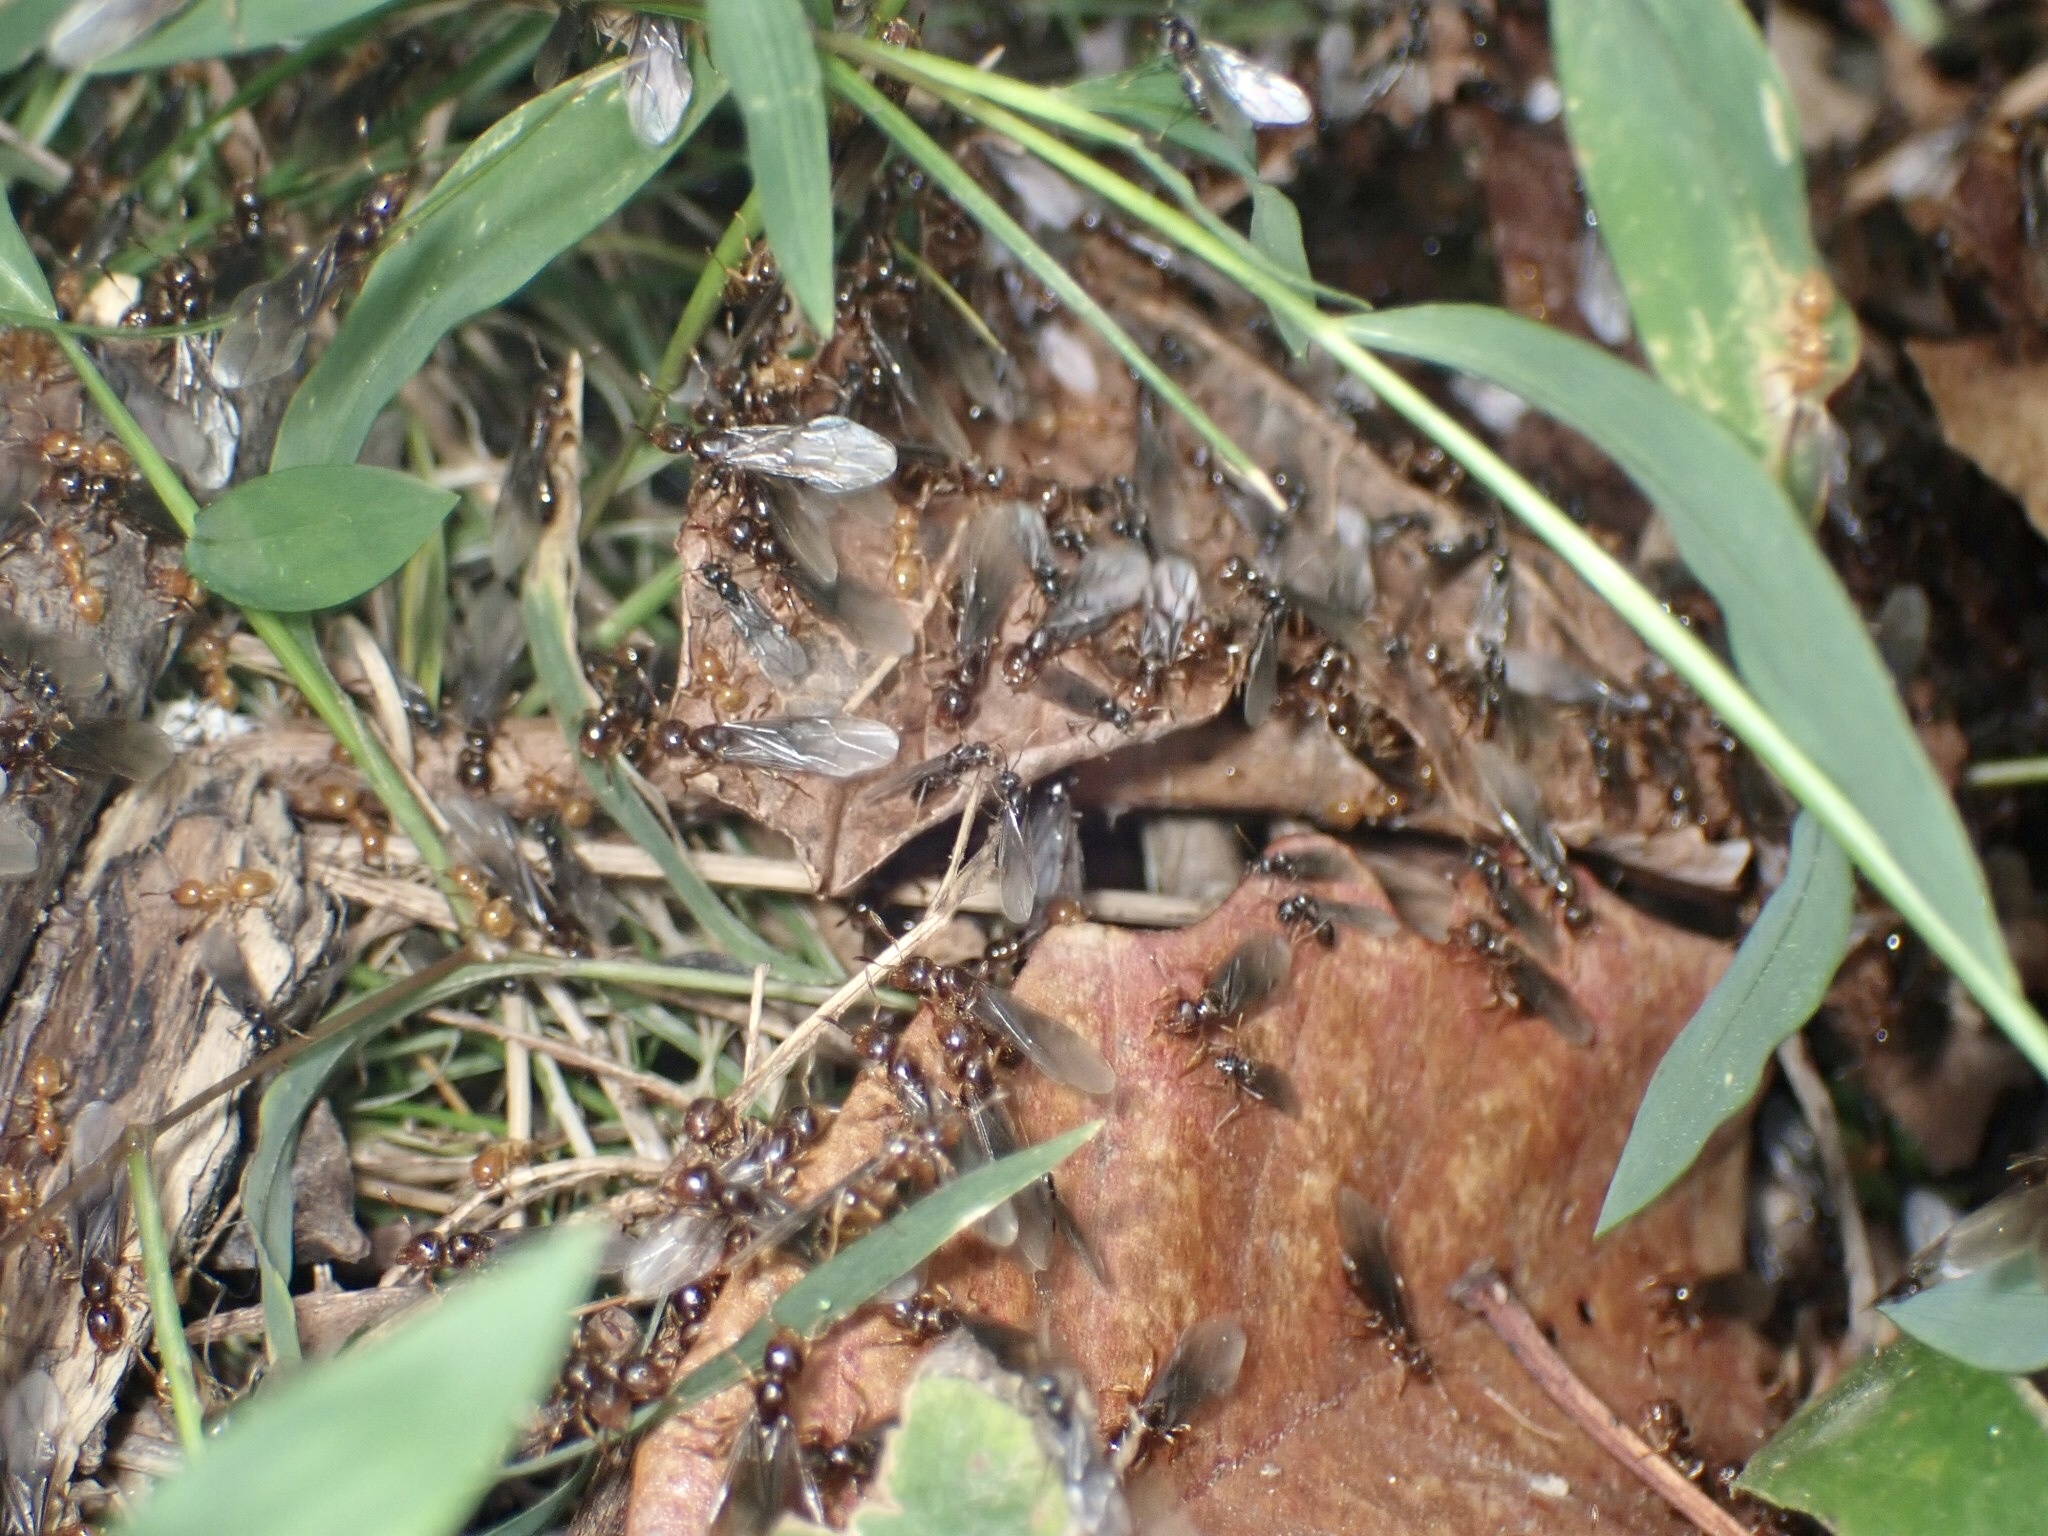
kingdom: Animalia
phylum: Arthropoda
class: Insecta
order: Hymenoptera
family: Formicidae
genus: Lasius
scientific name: Lasius claviger
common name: Common citronella ant
